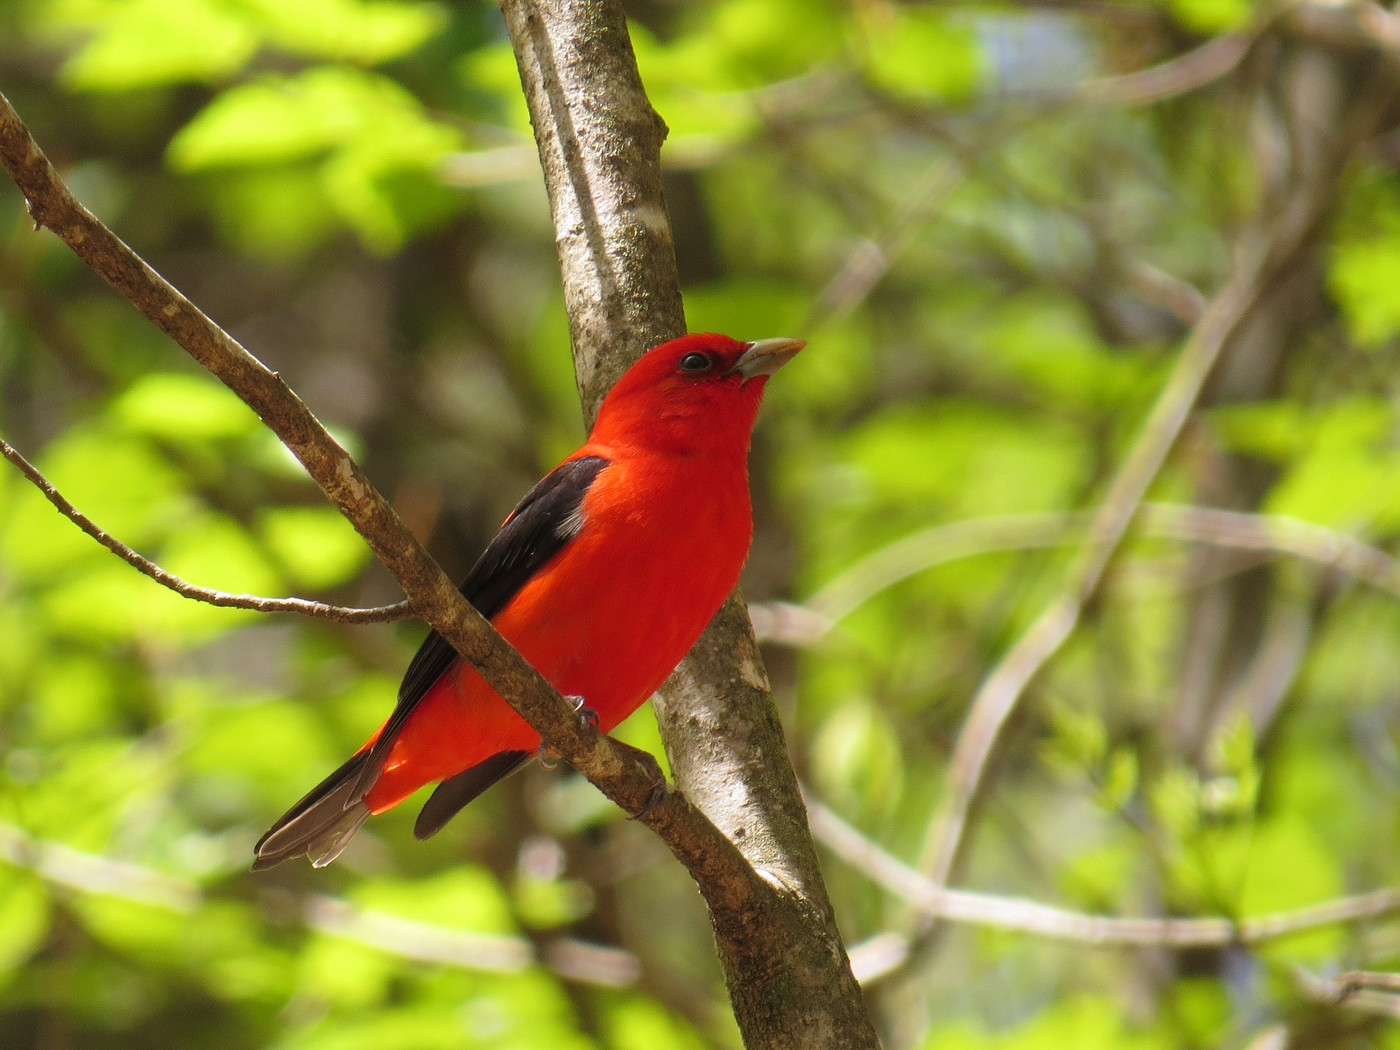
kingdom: Animalia
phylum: Chordata
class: Aves
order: Passeriformes
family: Cardinalidae
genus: Piranga
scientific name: Piranga olivacea
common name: Scarlet tanager
